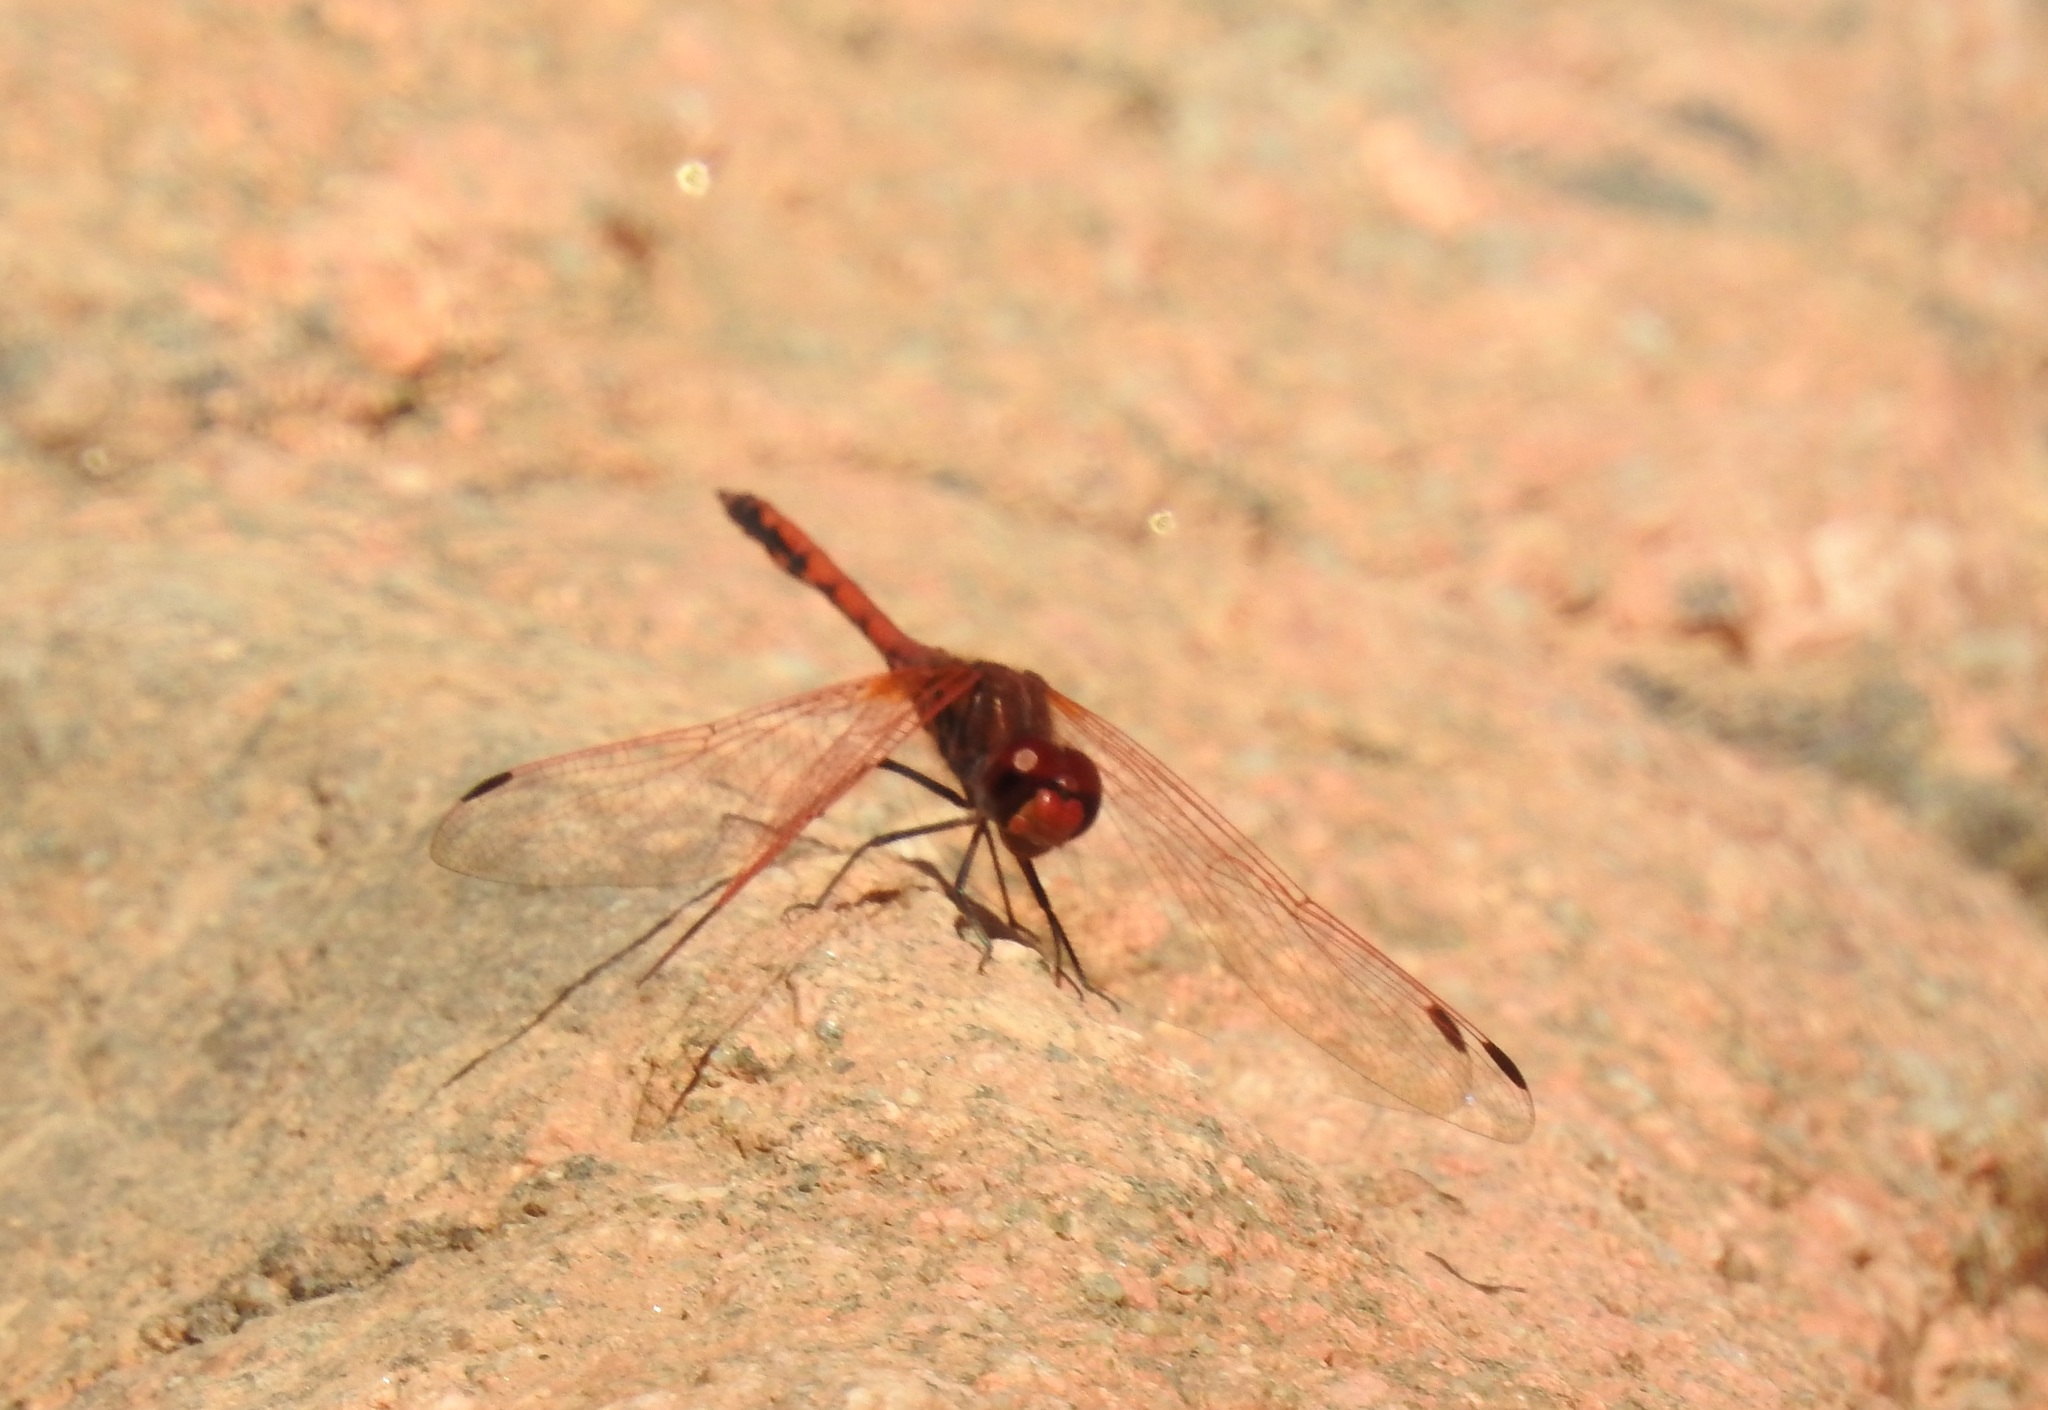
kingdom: Animalia
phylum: Arthropoda
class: Insecta
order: Odonata
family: Libellulidae
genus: Trithemis
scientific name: Trithemis arteriosa
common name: Red-veined dropwing
